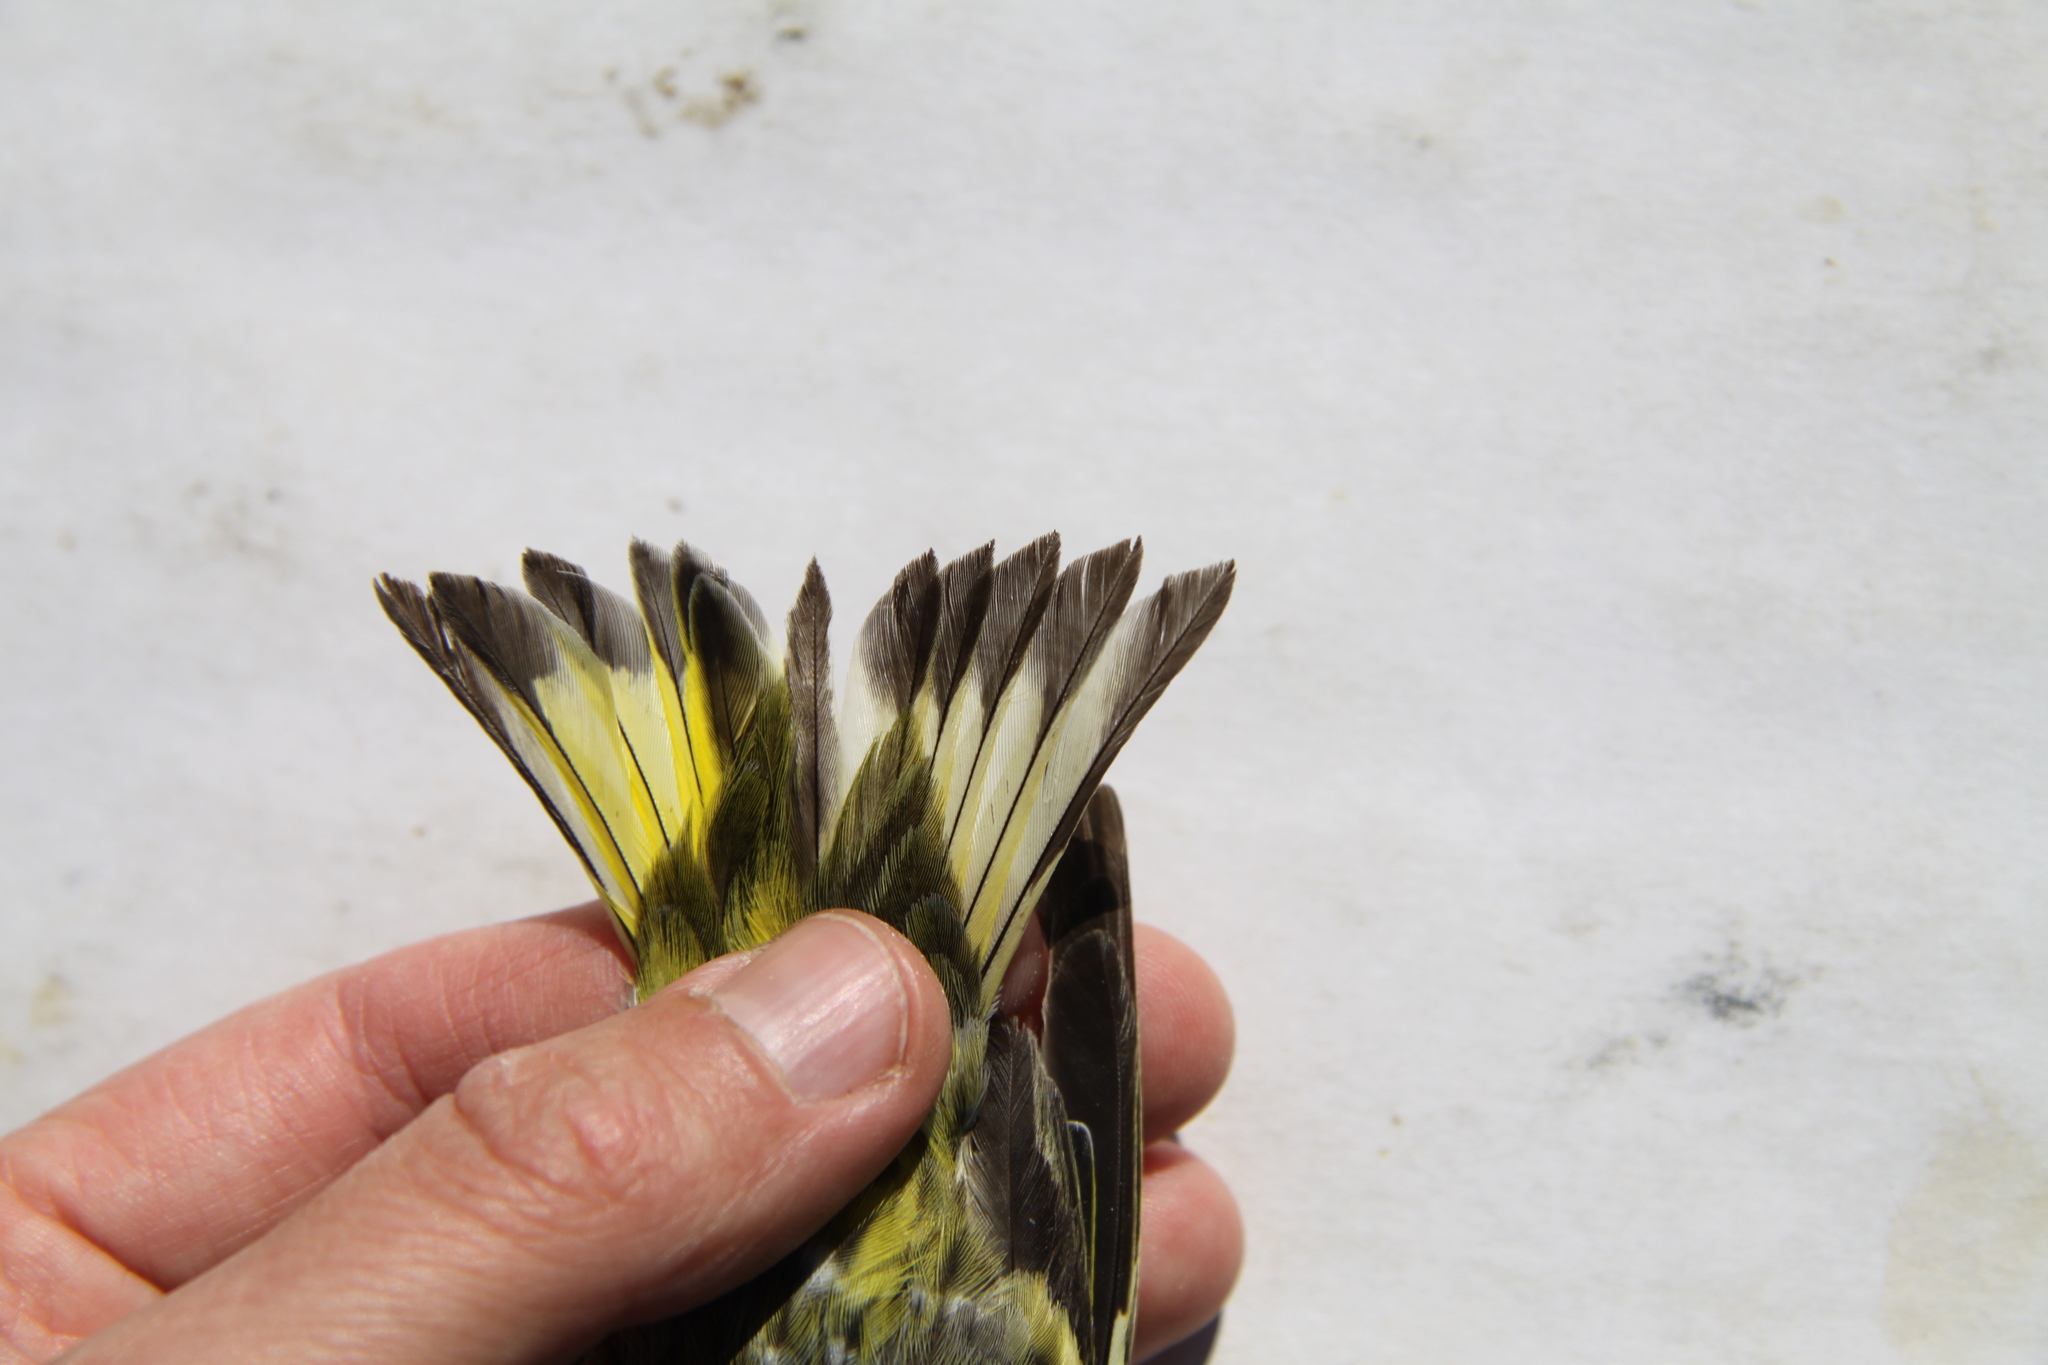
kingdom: Animalia
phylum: Chordata
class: Aves
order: Passeriformes
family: Fringillidae
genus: Spinus
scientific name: Spinus spinus
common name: Eurasian siskin
